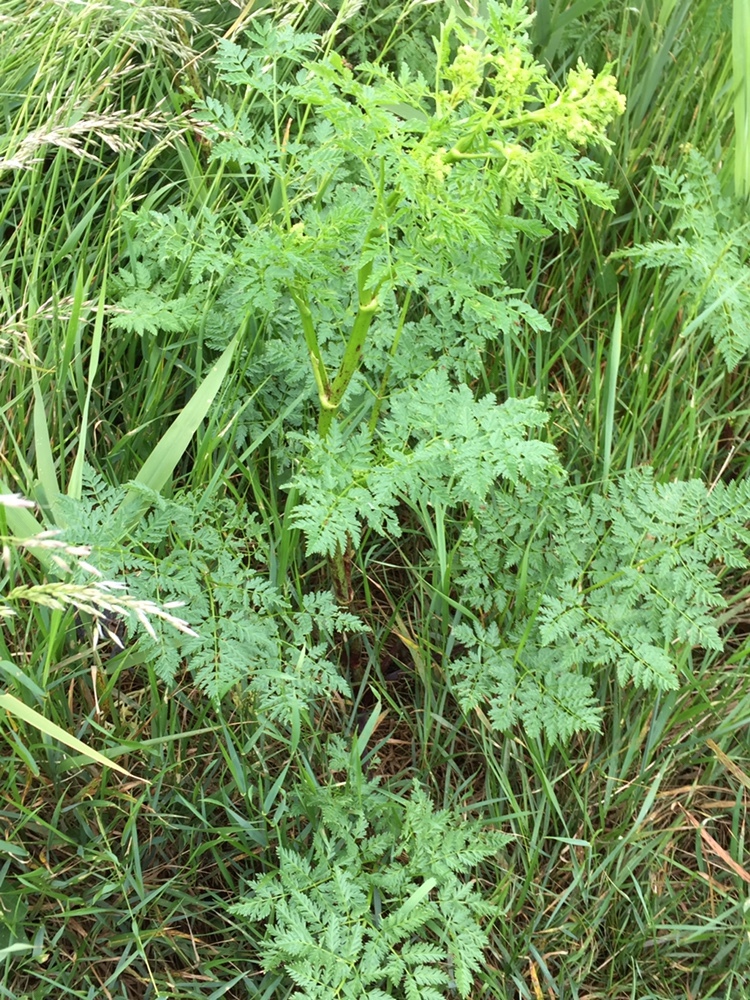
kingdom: Plantae
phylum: Tracheophyta
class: Magnoliopsida
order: Apiales
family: Apiaceae
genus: Conium
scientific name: Conium maculatum
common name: Hemlock
